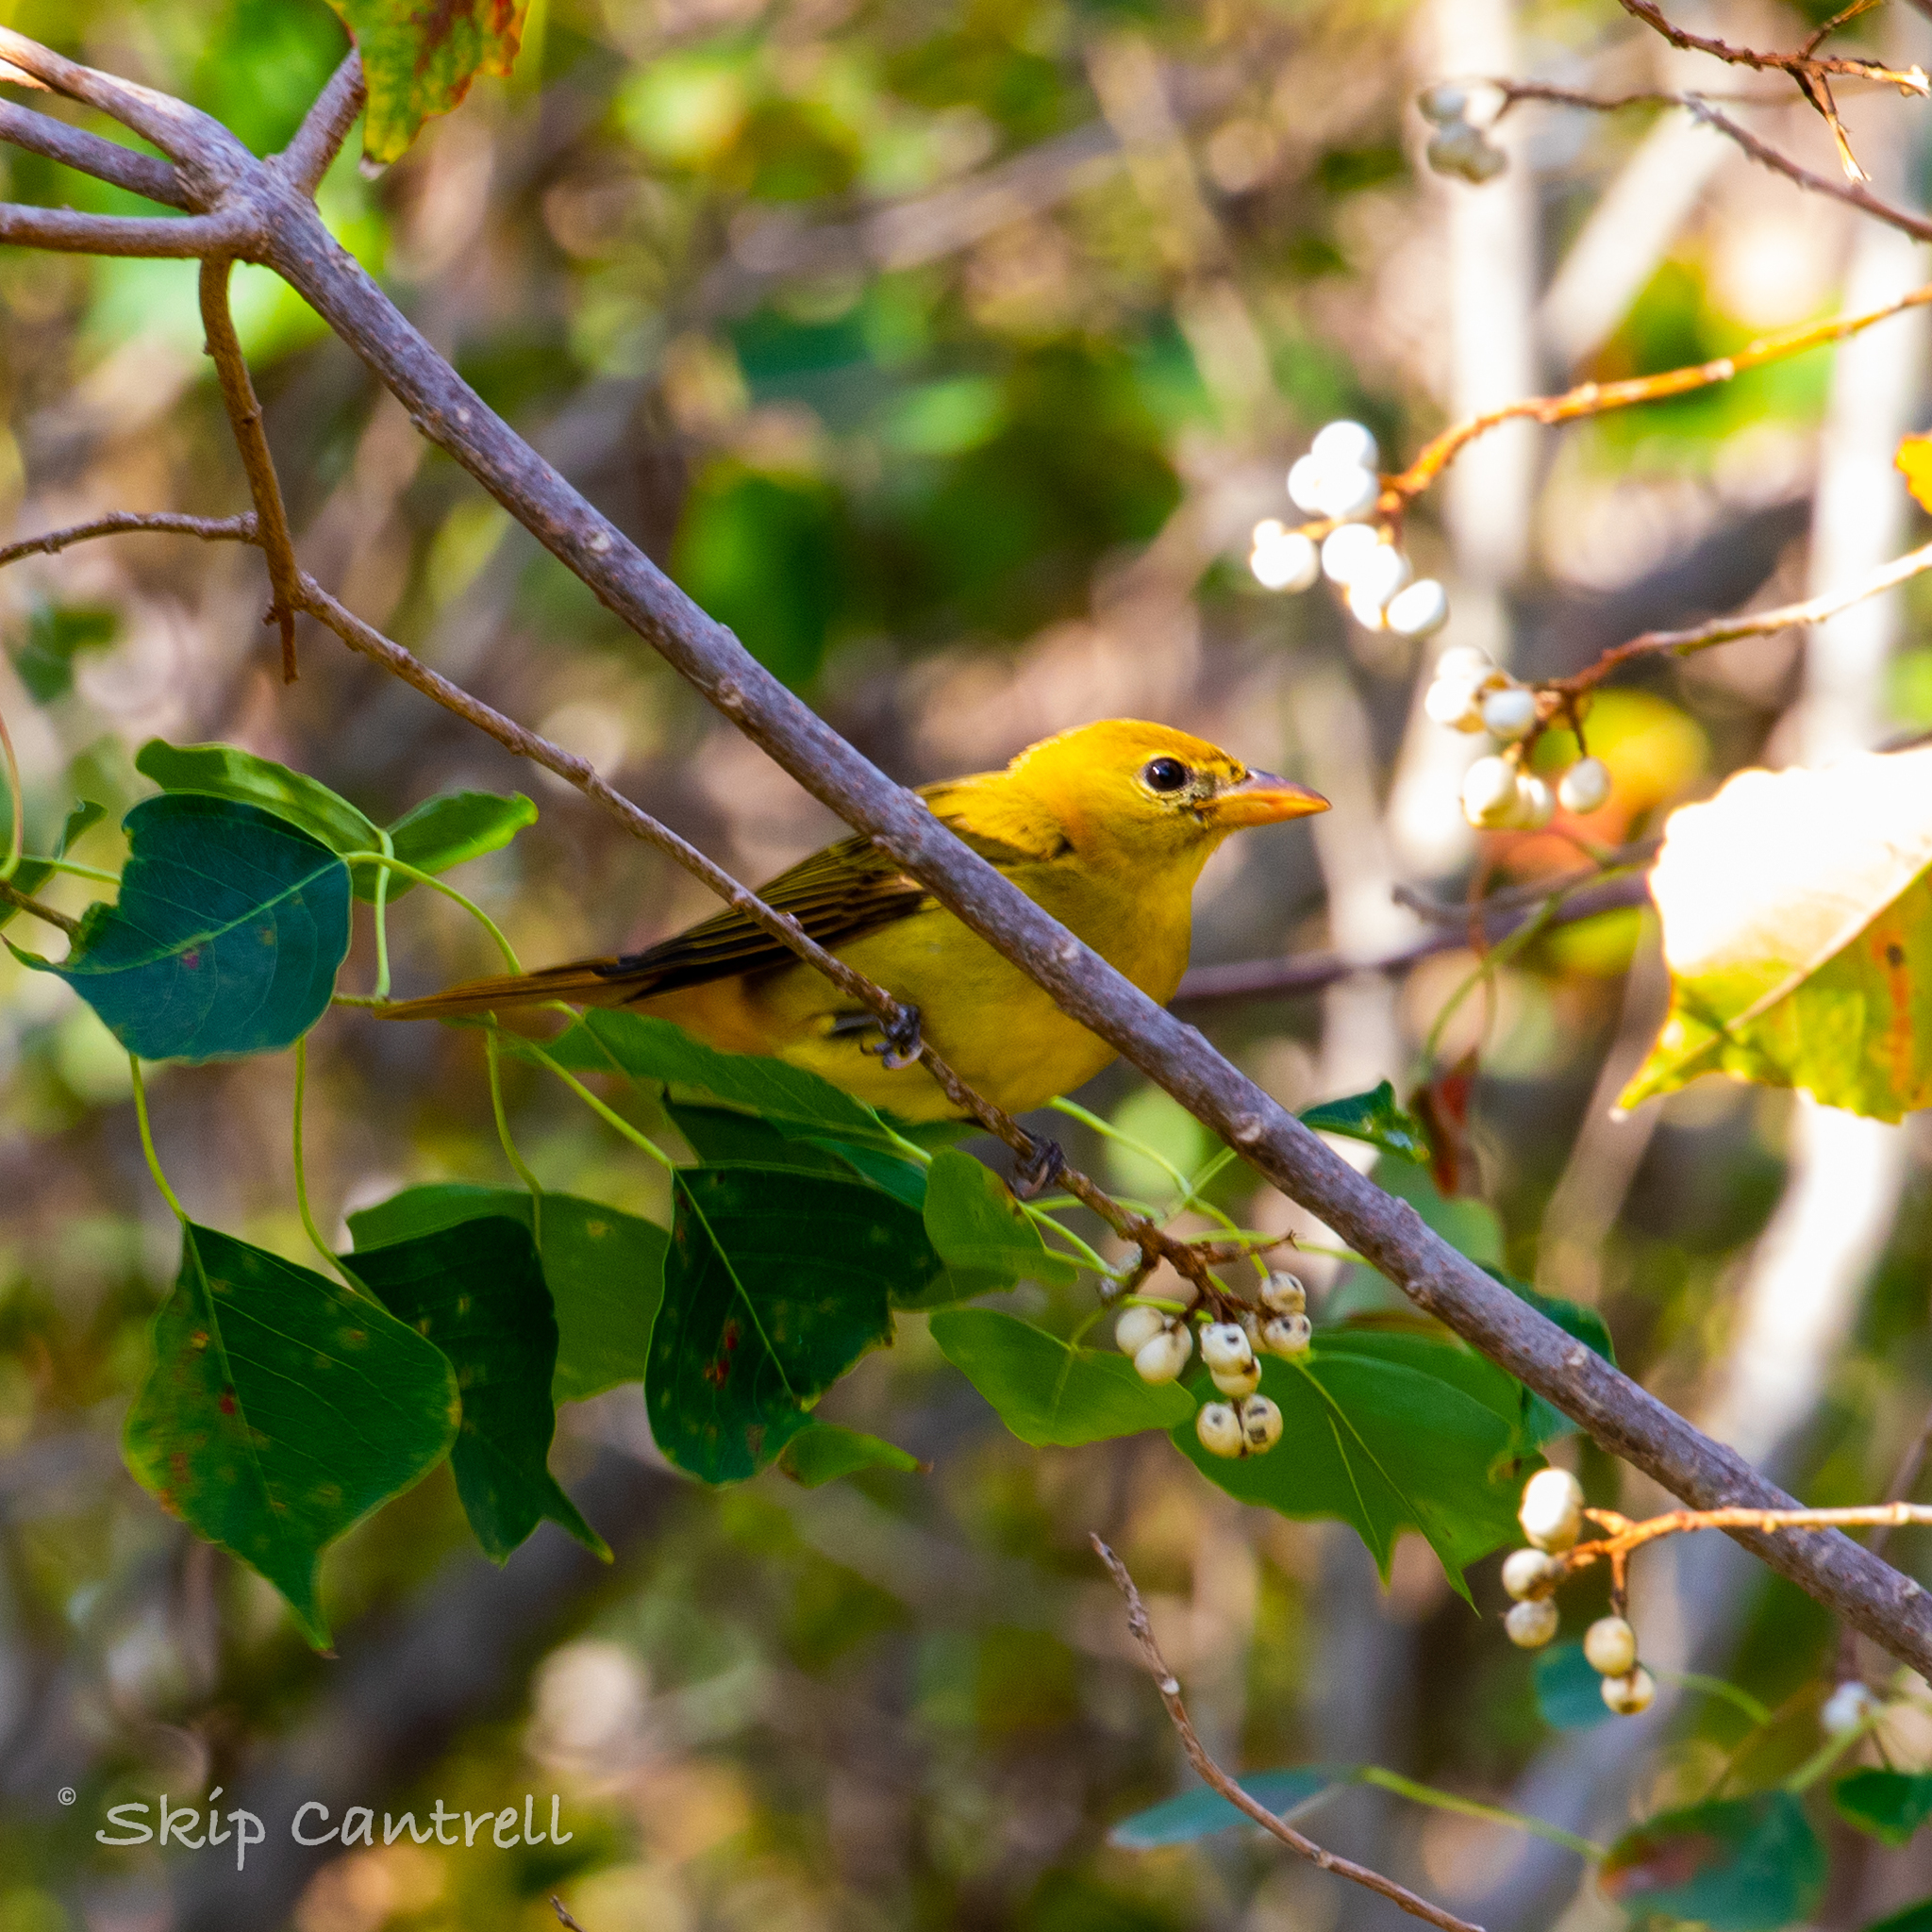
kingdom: Animalia
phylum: Chordata
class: Aves
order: Passeriformes
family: Cardinalidae
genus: Piranga
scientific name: Piranga rubra
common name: Summer tanager
